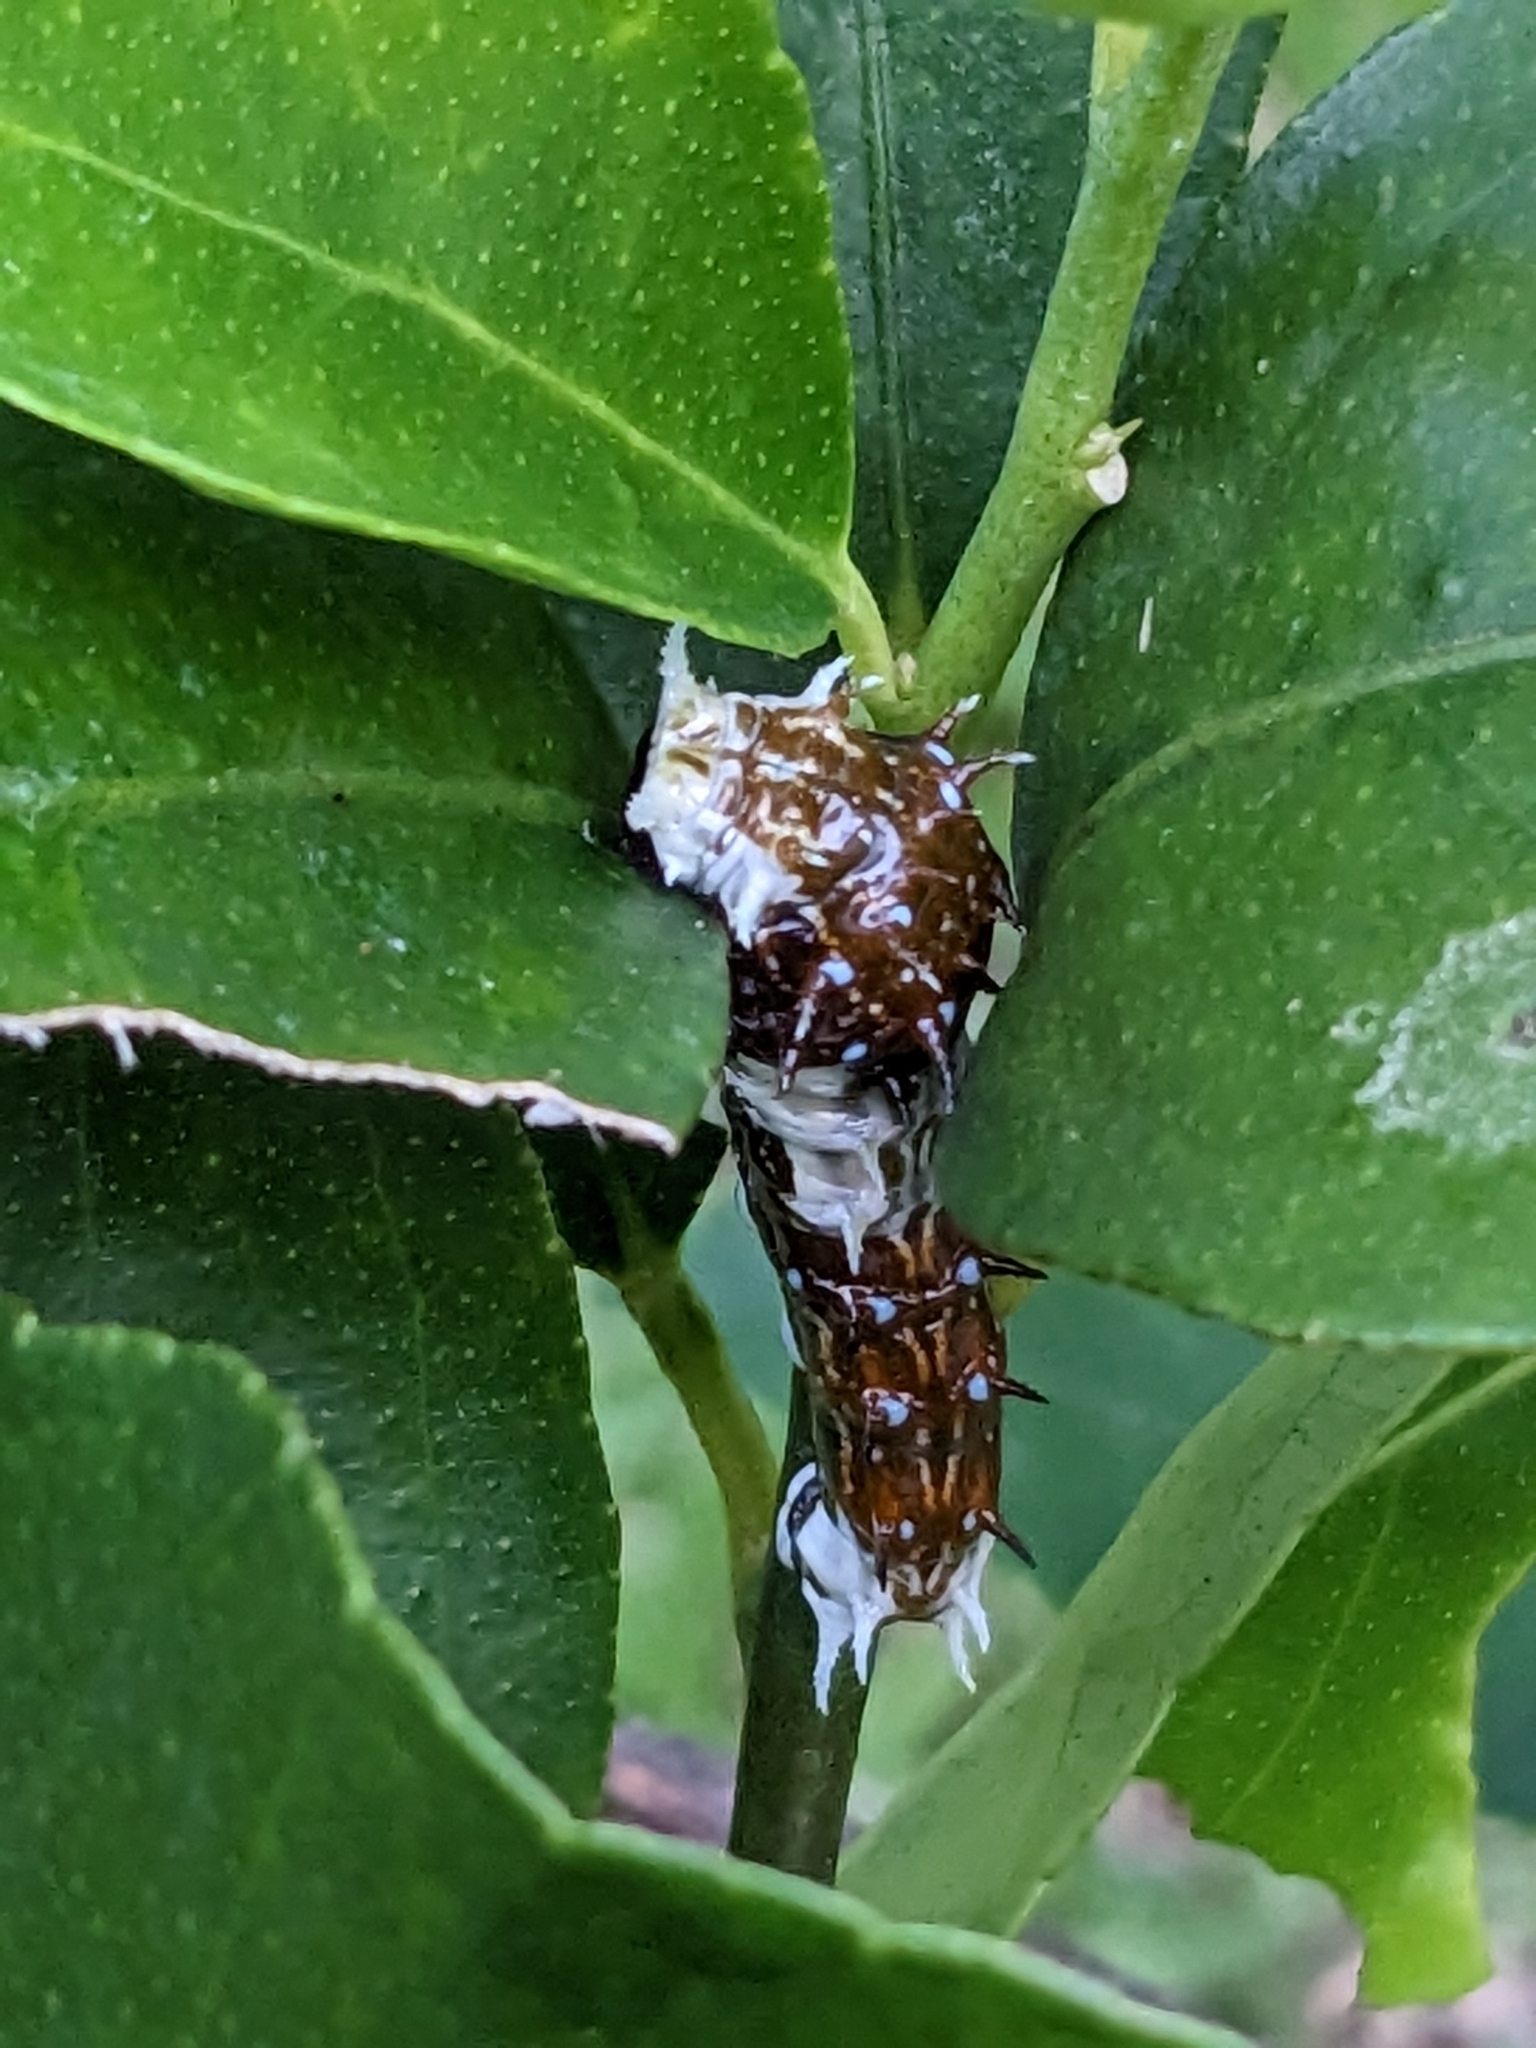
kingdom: Animalia
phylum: Arthropoda
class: Insecta
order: Lepidoptera
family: Papilionidae
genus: Papilio
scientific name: Papilio aegeus
